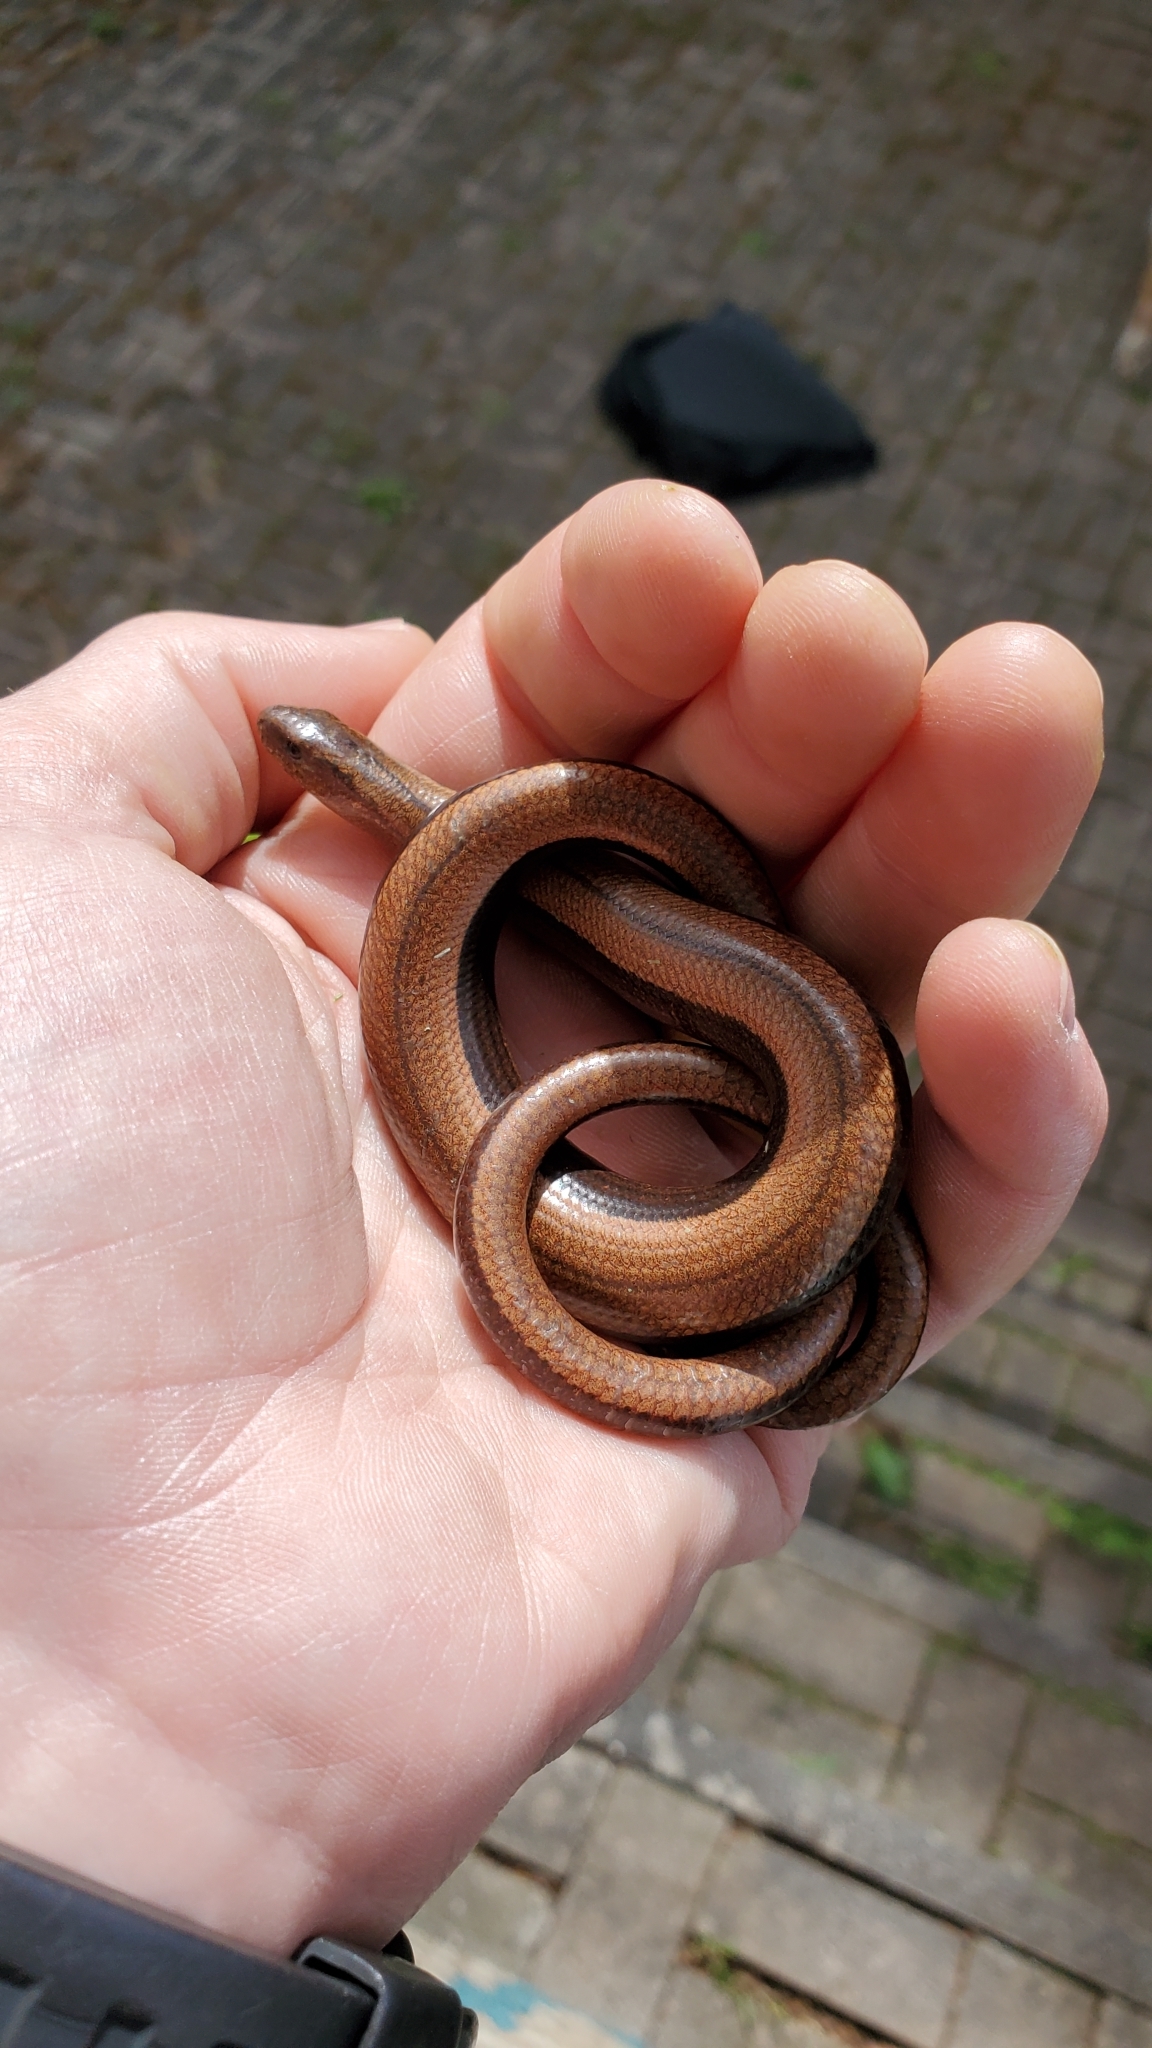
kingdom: Animalia
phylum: Chordata
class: Squamata
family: Anguidae
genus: Anguis
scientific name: Anguis fragilis
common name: Slow worm
